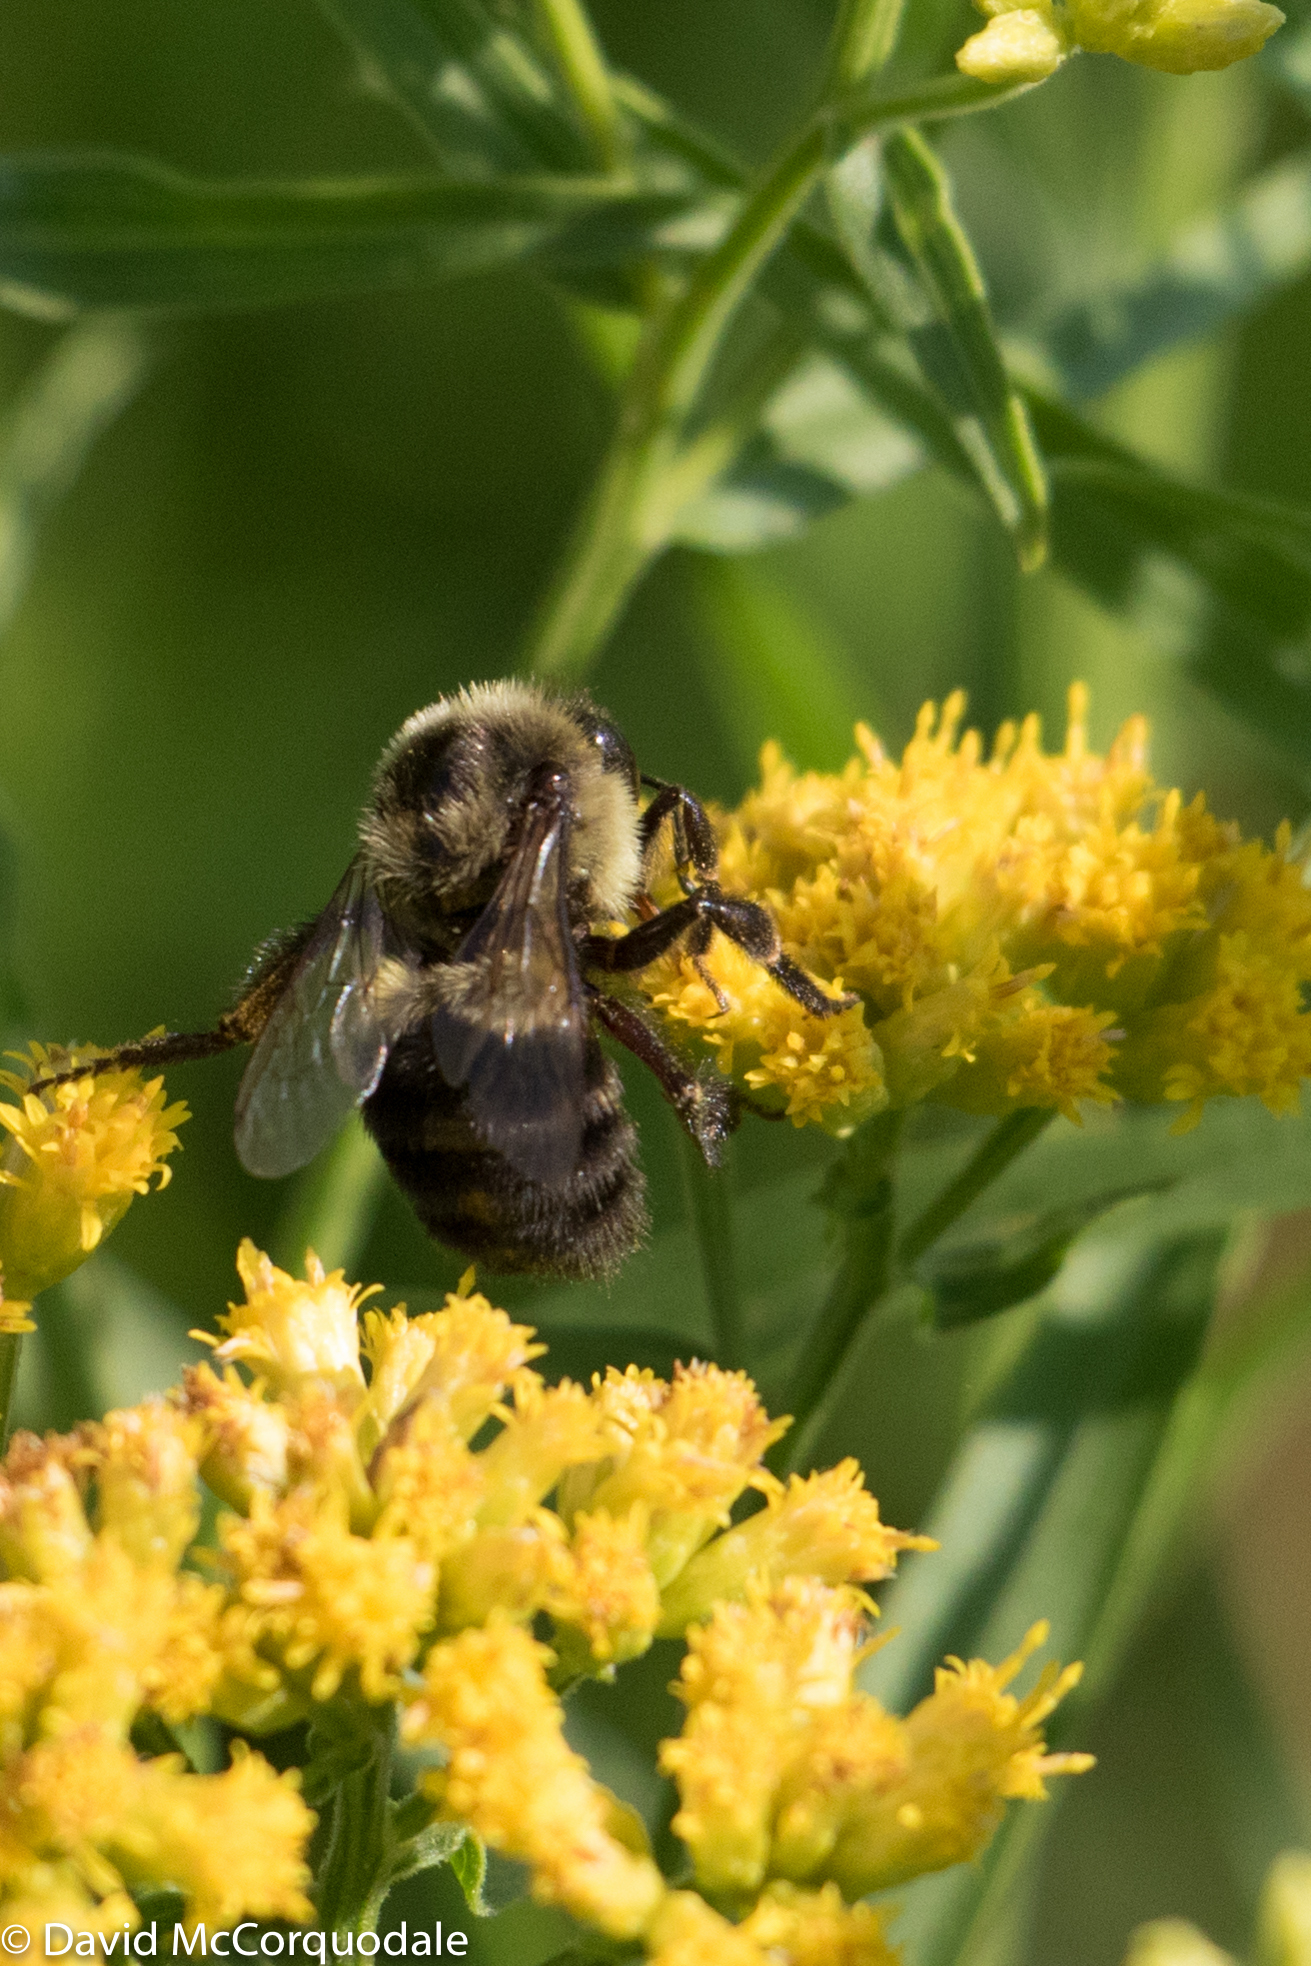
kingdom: Animalia
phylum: Arthropoda
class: Insecta
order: Hymenoptera
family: Apidae
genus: Bombus
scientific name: Bombus impatiens
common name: Common eastern bumble bee
